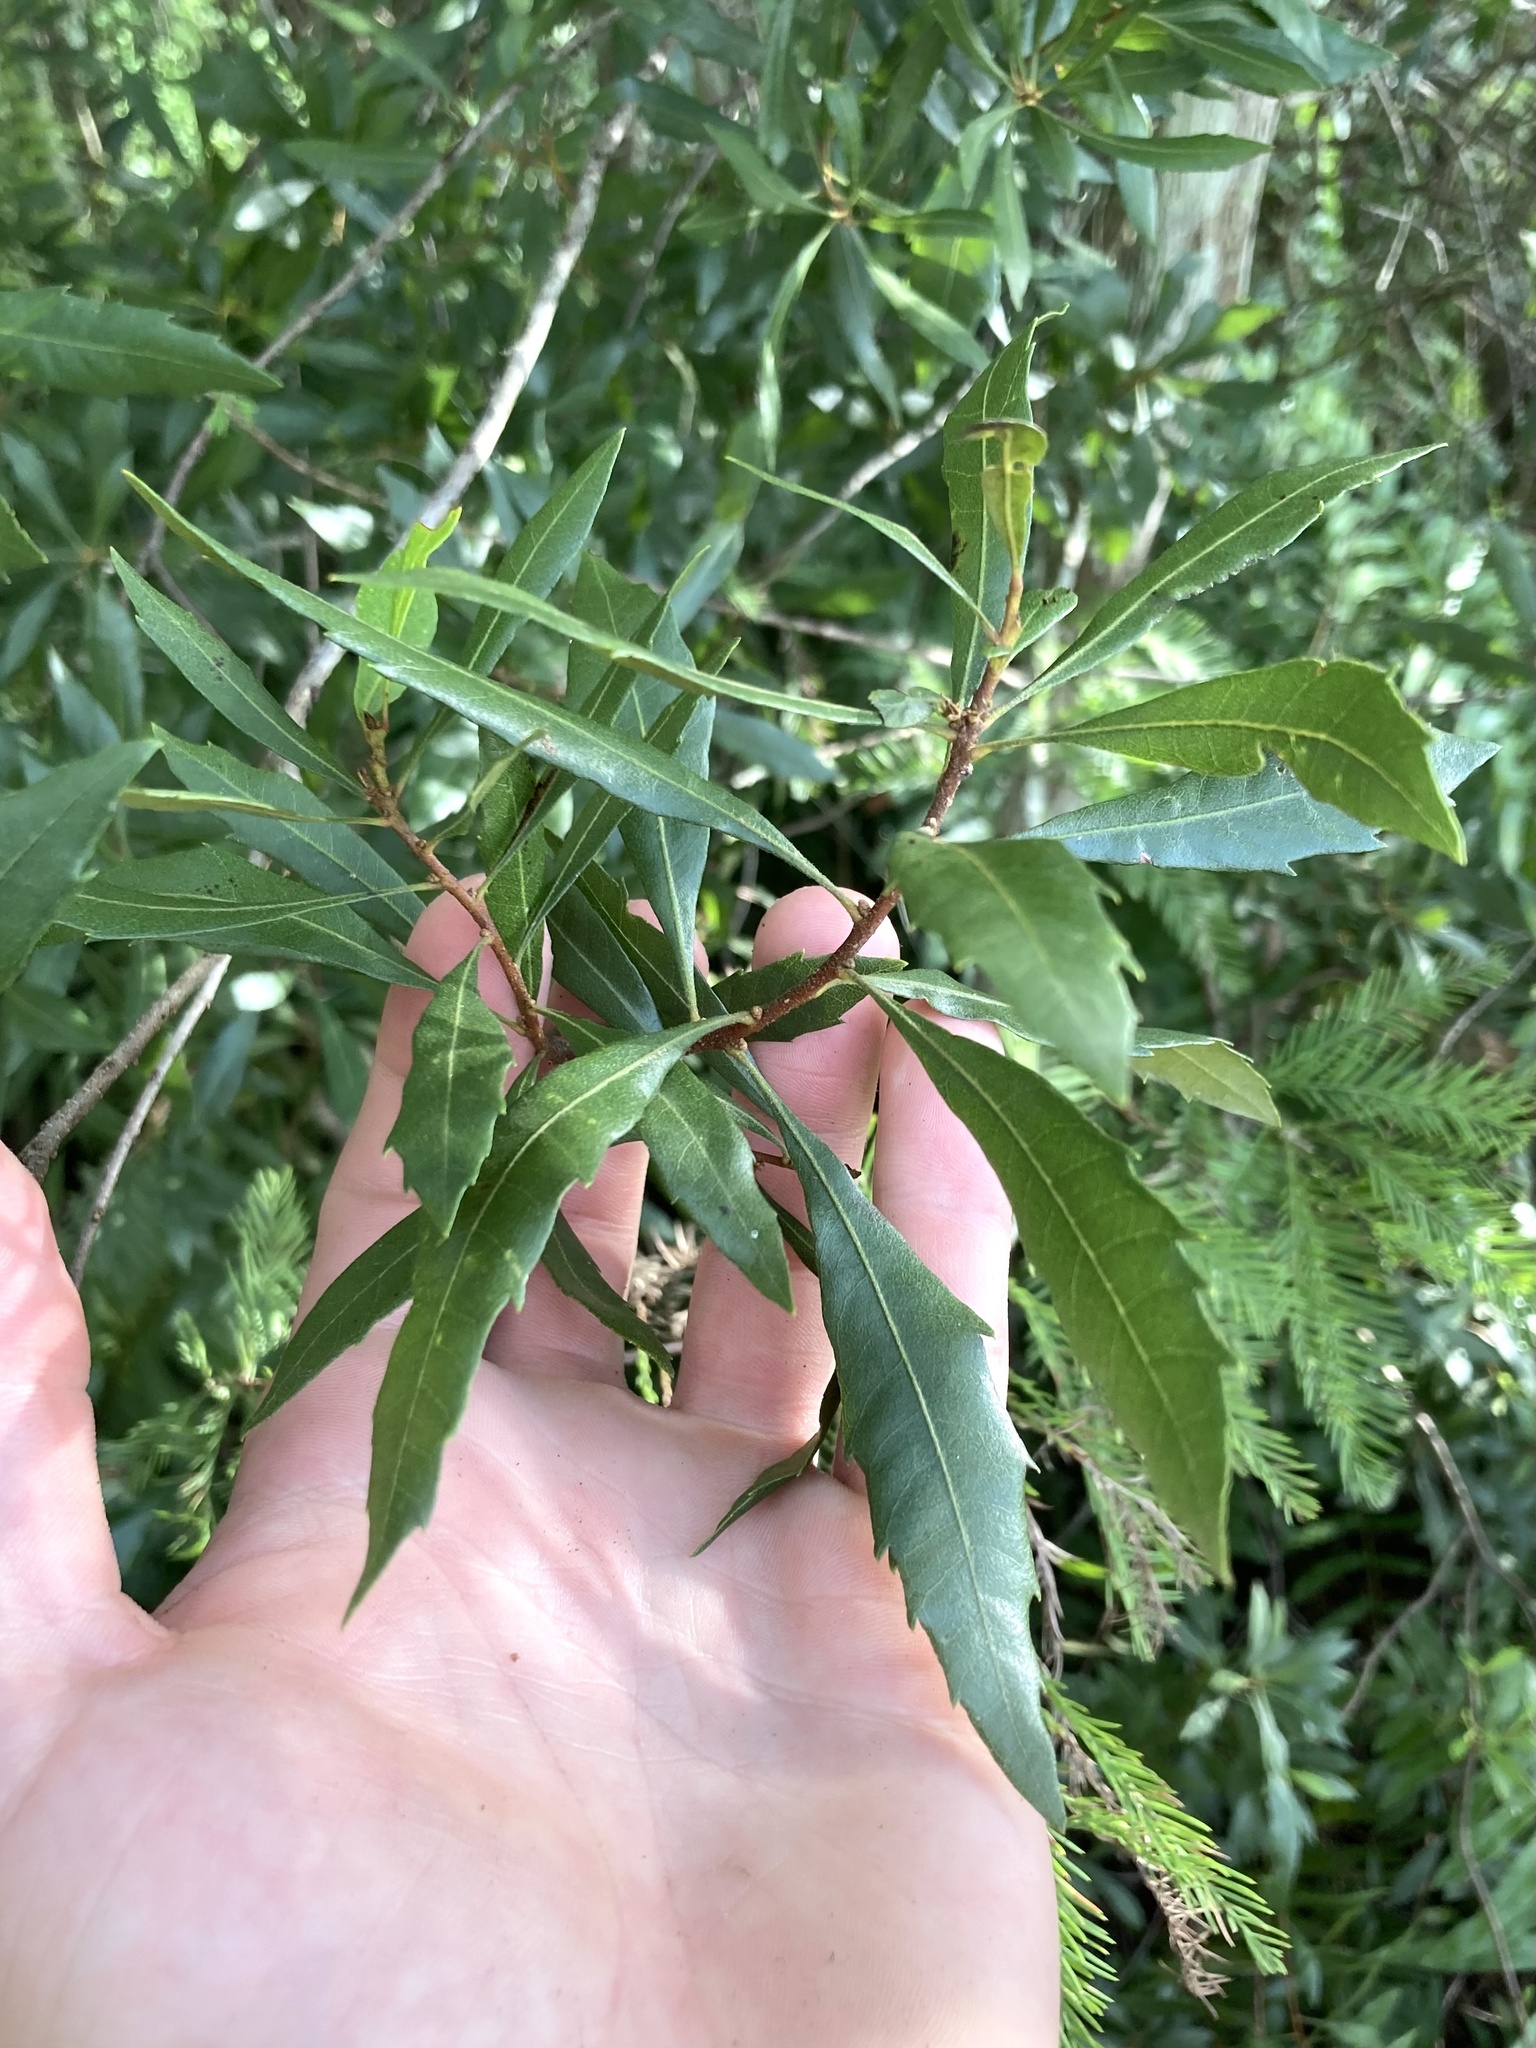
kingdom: Plantae
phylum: Tracheophyta
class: Magnoliopsida
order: Fagales
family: Myricaceae
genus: Morella
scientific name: Morella cerifera
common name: Wax myrtle
